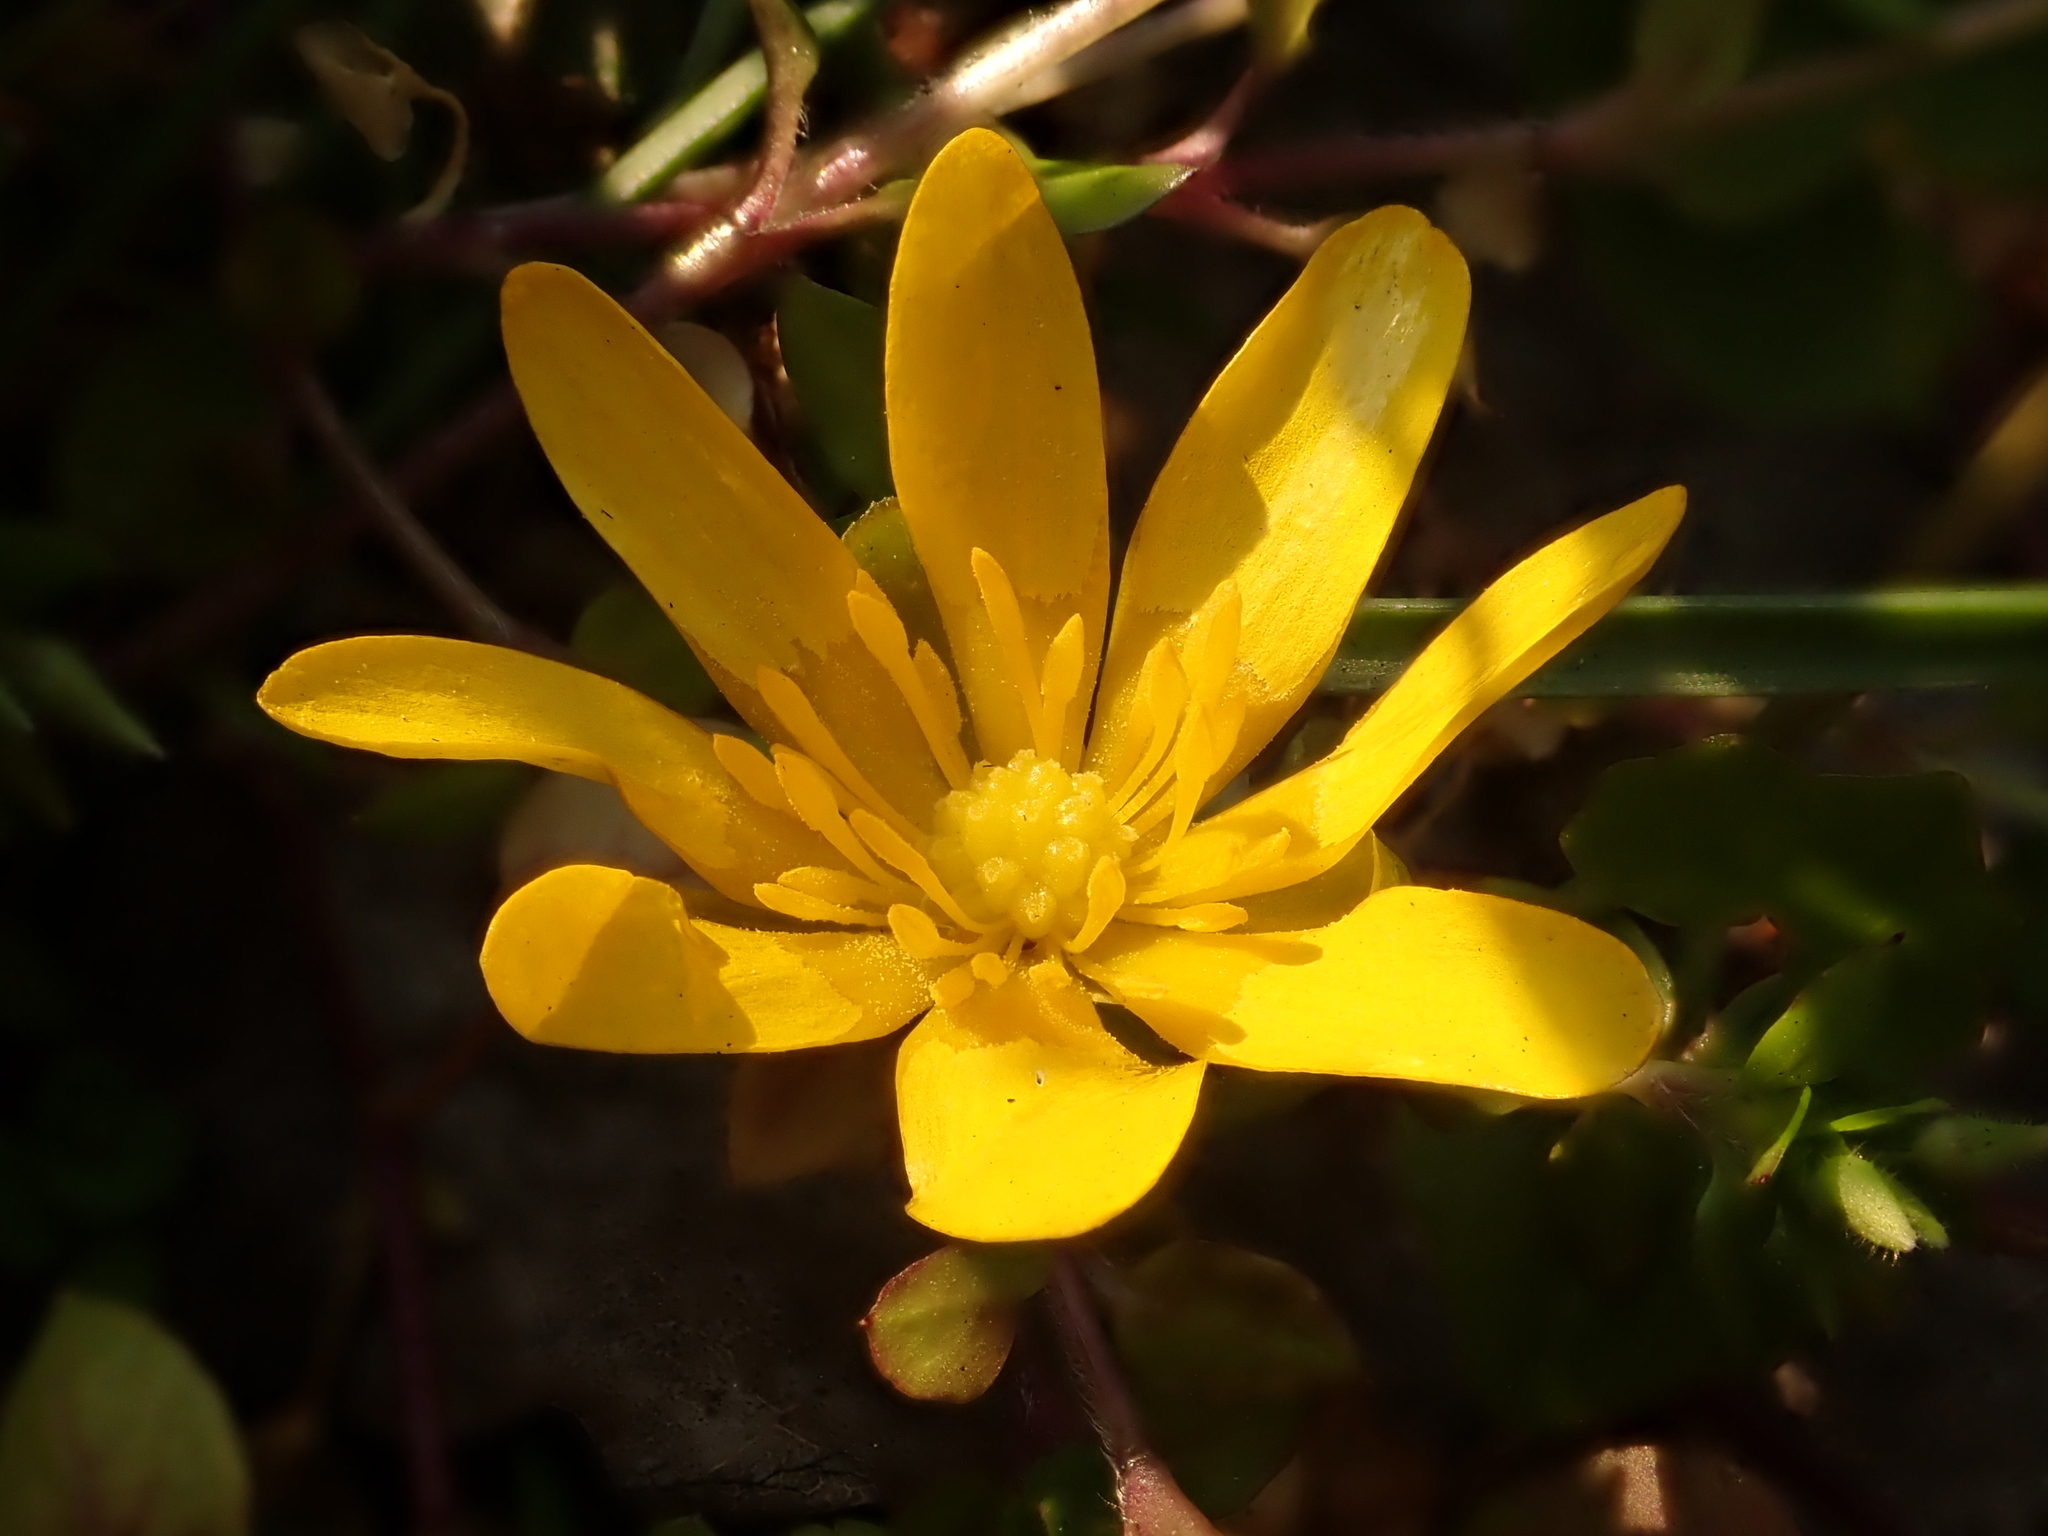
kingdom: Plantae
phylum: Tracheophyta
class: Magnoliopsida
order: Ranunculales
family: Ranunculaceae
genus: Ficaria
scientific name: Ficaria verna
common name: Lesser celandine
